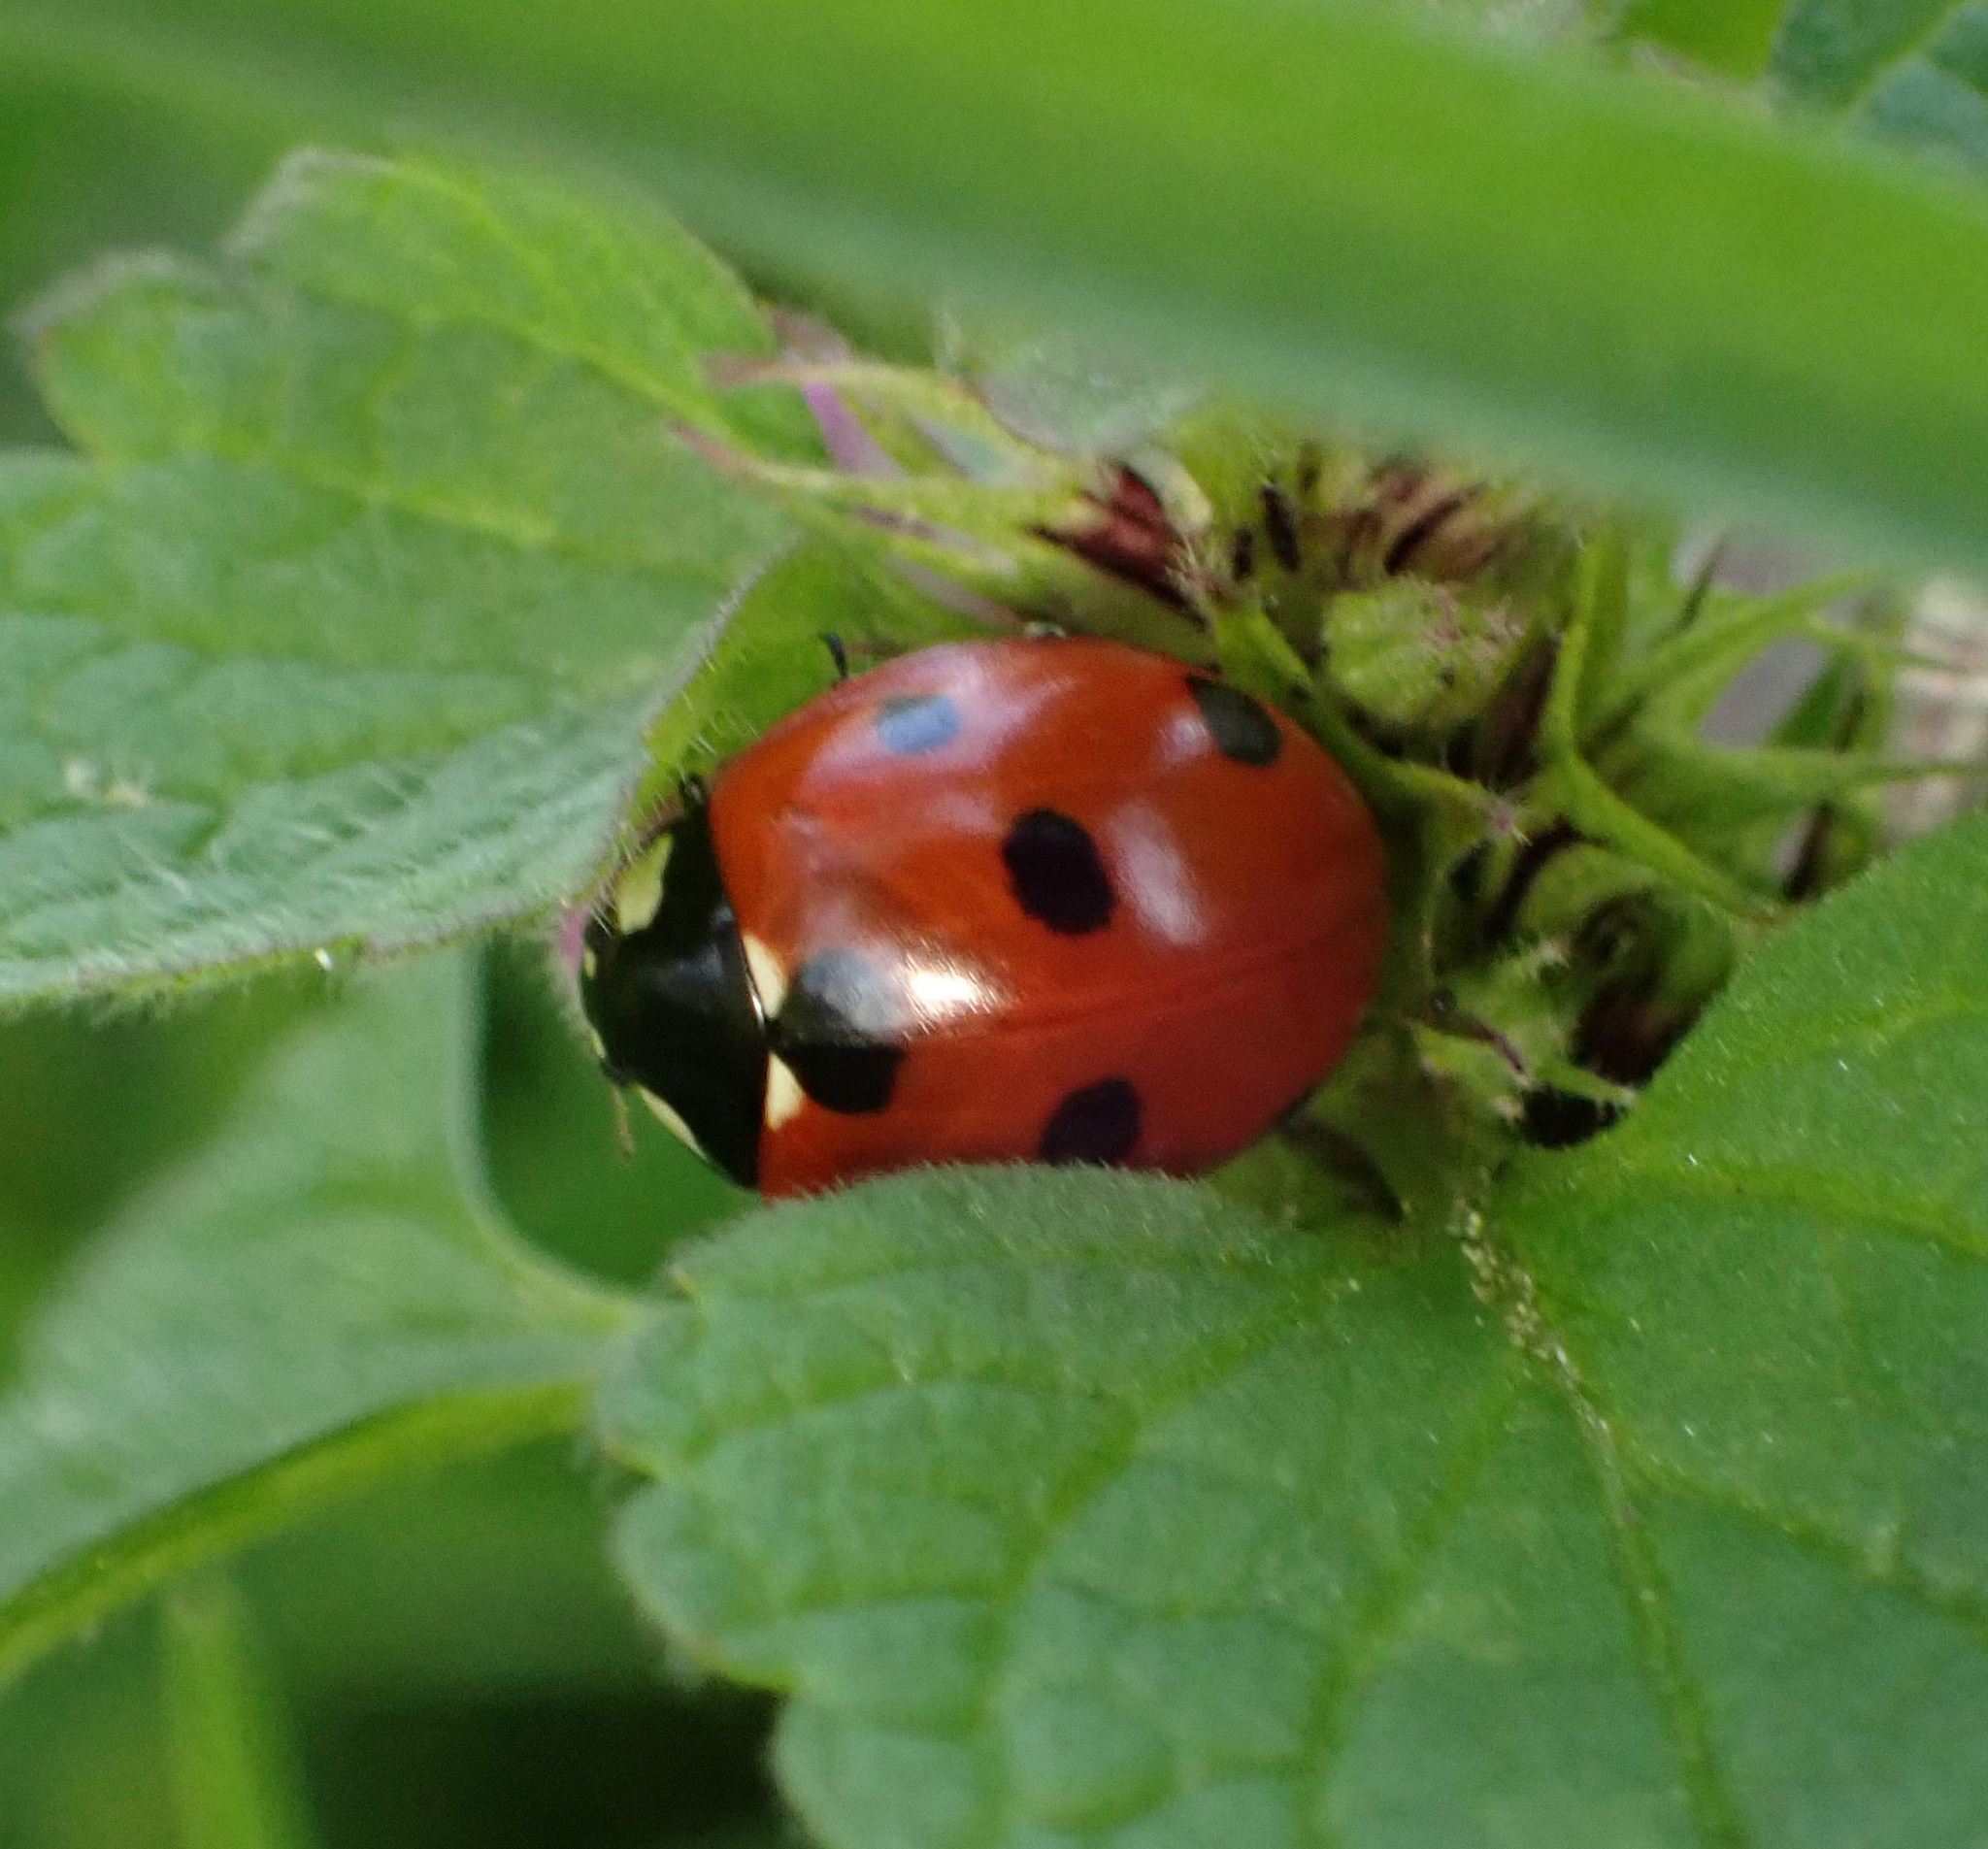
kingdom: Animalia
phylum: Arthropoda
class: Insecta
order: Coleoptera
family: Coccinellidae
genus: Coccinella
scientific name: Coccinella septempunctata
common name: Sevenspotted lady beetle
